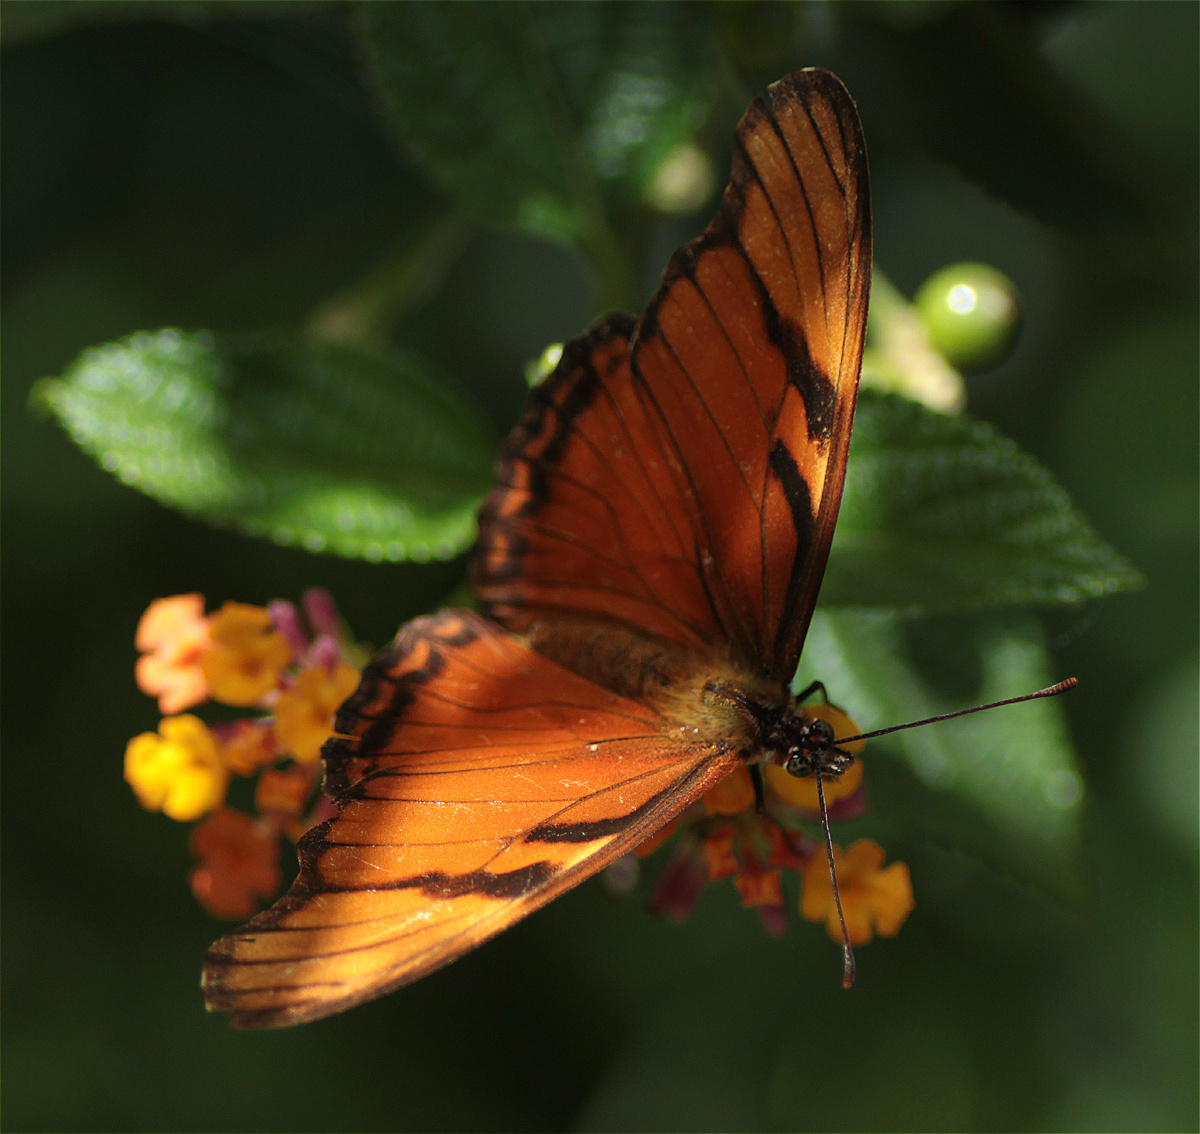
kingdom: Animalia
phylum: Arthropoda
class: Insecta
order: Lepidoptera
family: Nymphalidae
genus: Dione
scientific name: Dione juno
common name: Juno silverspot
